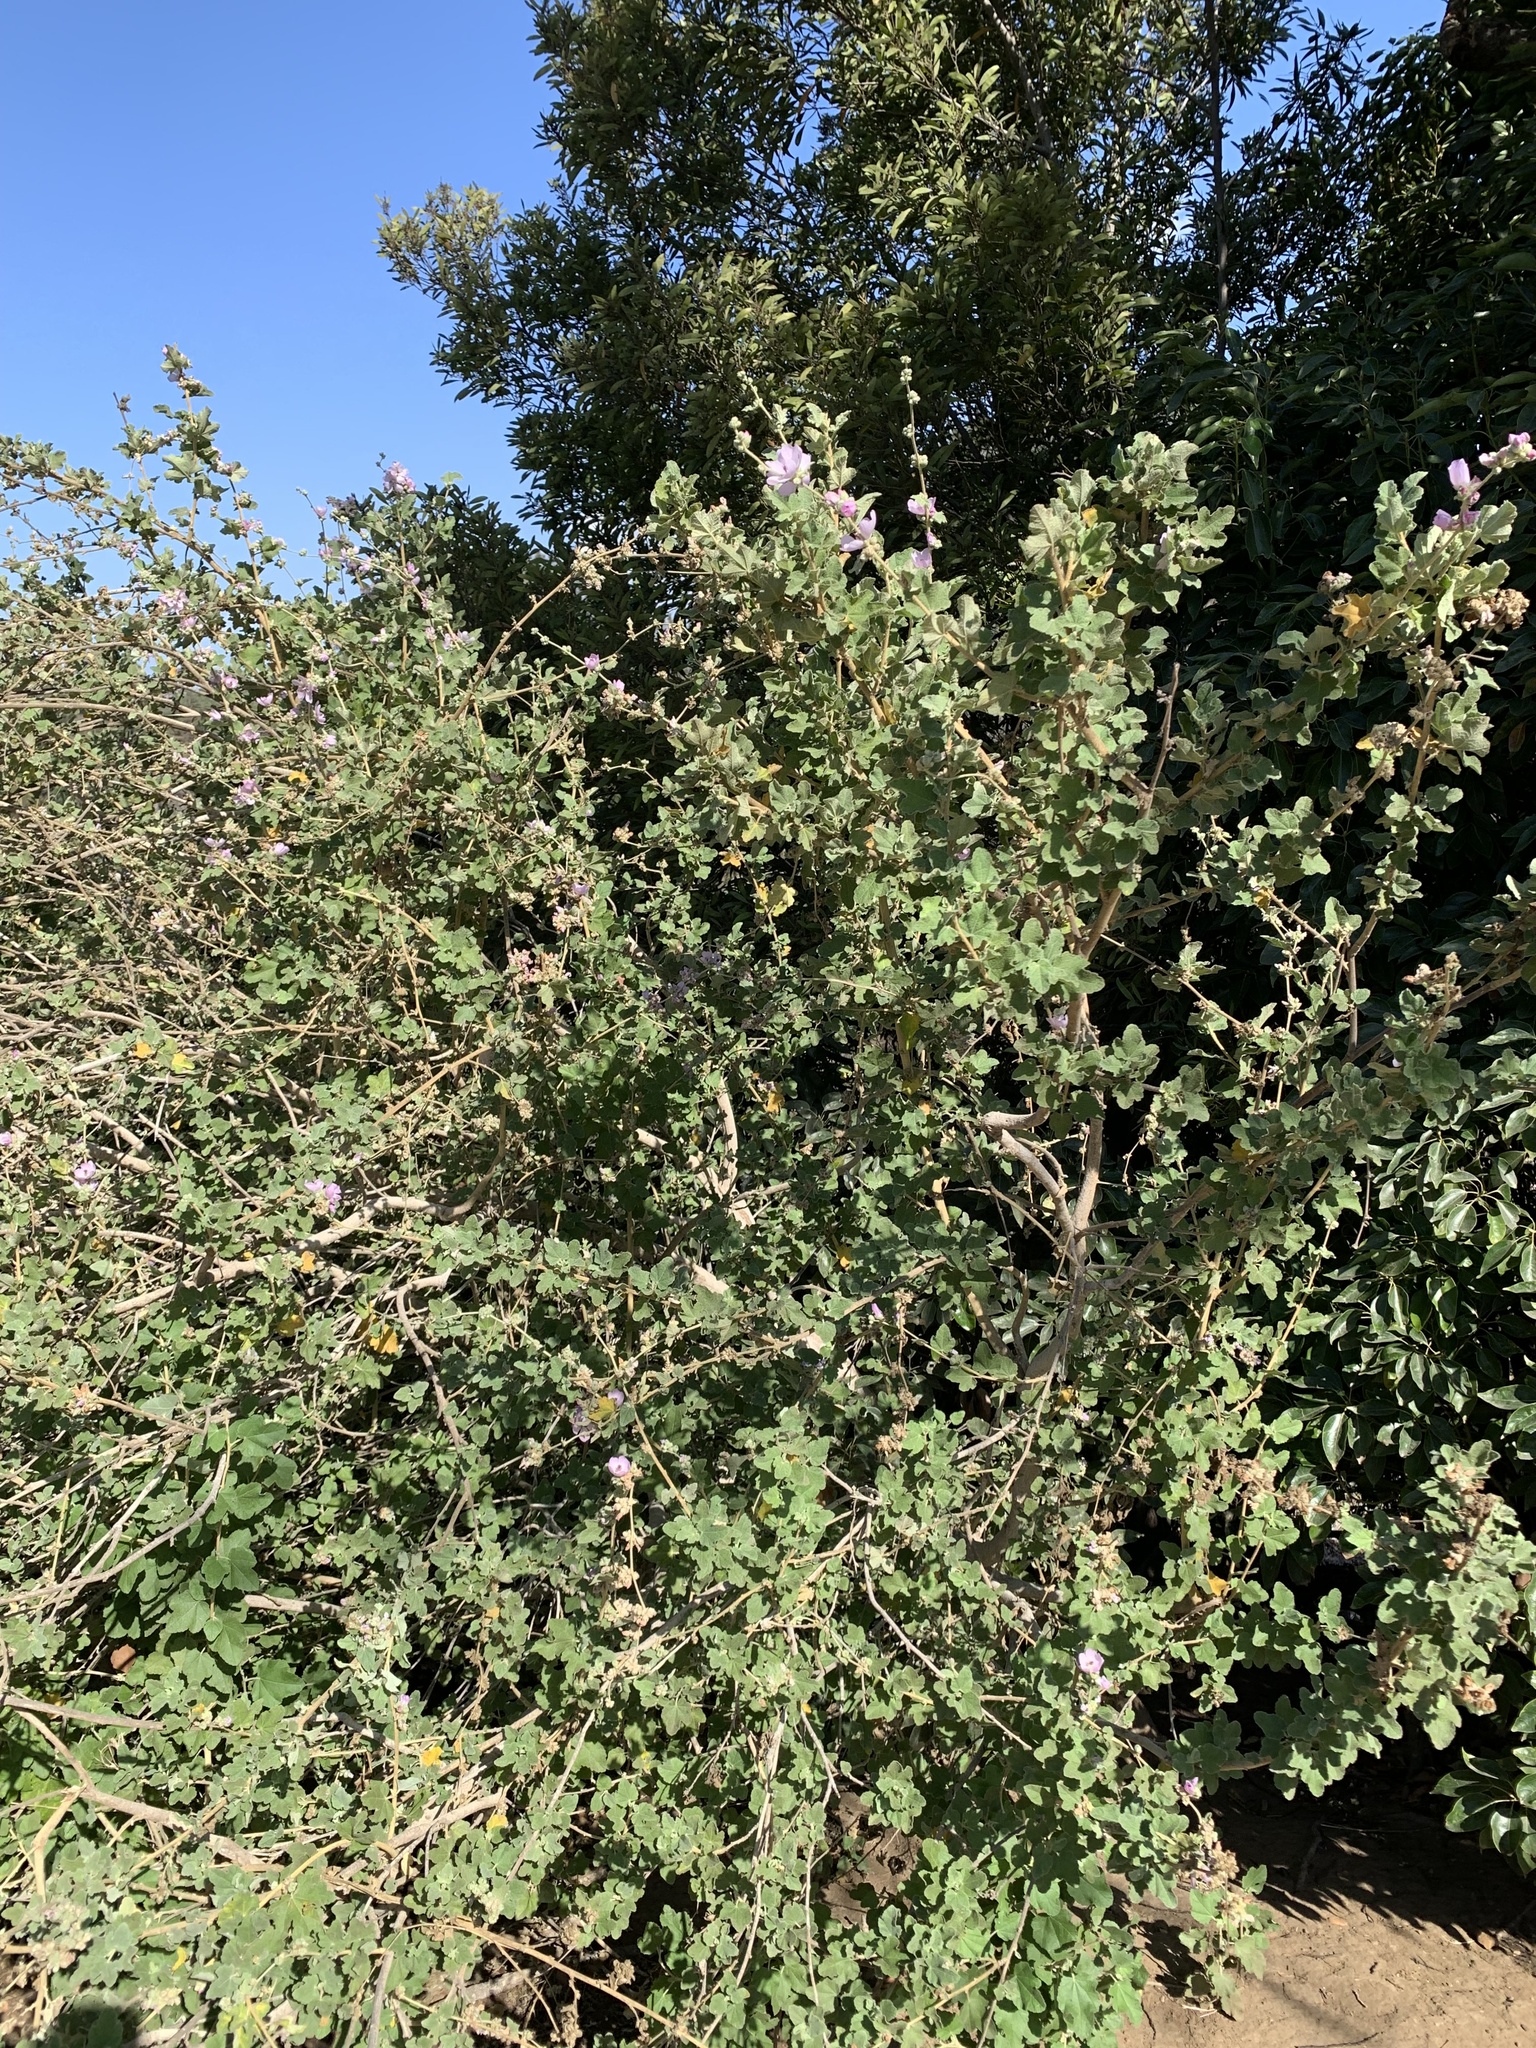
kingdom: Plantae
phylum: Tracheophyta
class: Magnoliopsida
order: Malvales
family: Malvaceae
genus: Malacothamnus
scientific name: Malacothamnus fasciculatus
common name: Sant cruz island bush-mallow
